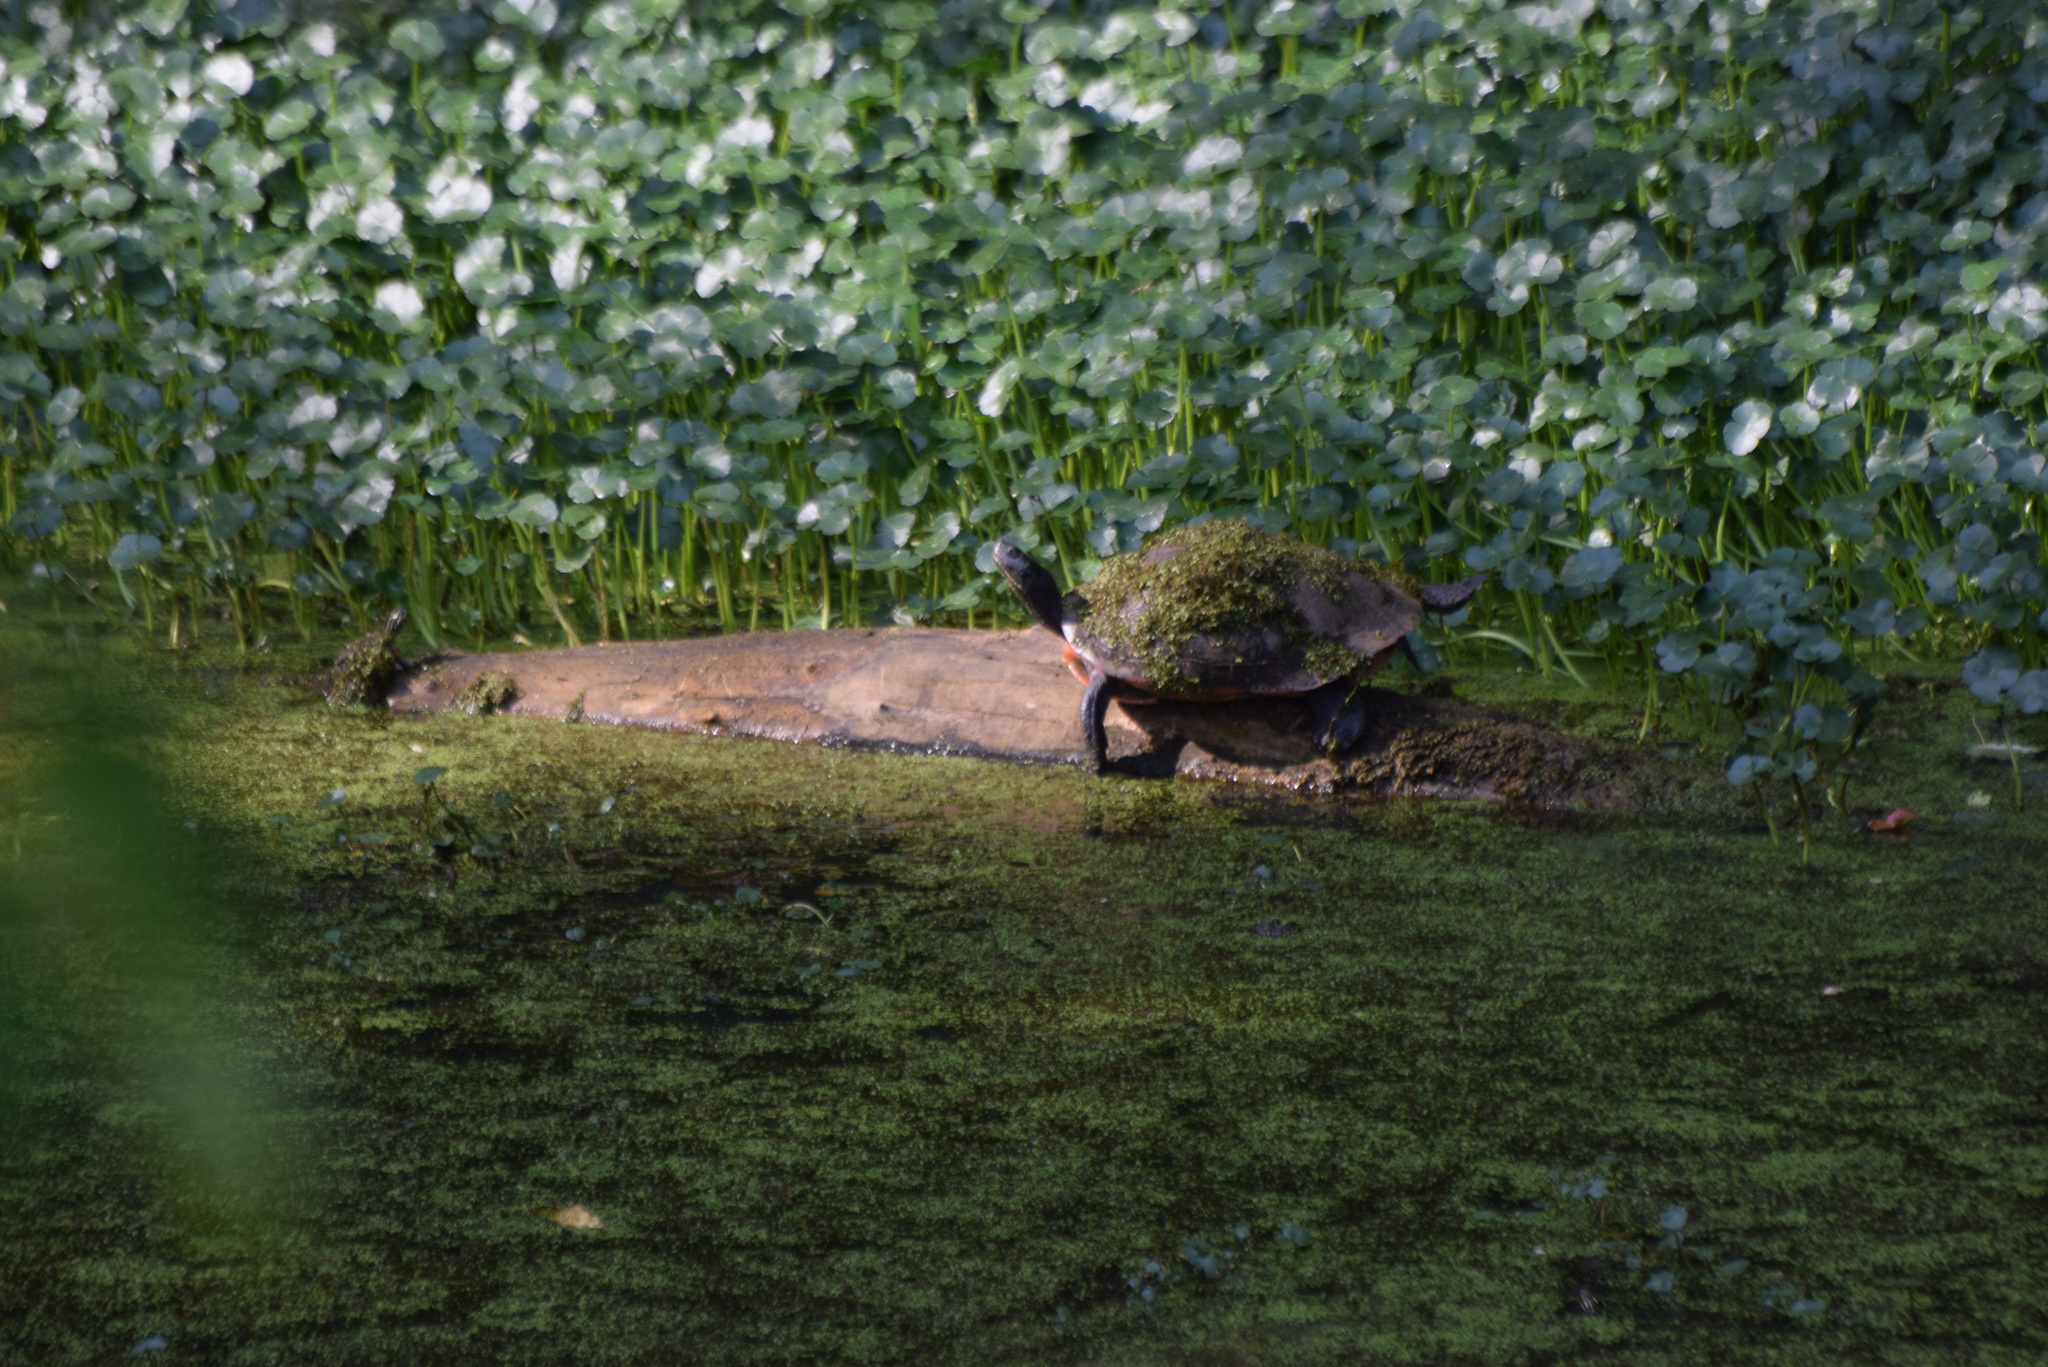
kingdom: Animalia
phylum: Chordata
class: Testudines
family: Emydidae
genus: Pseudemys
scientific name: Pseudemys rubriventris
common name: American red-bellied turtle
